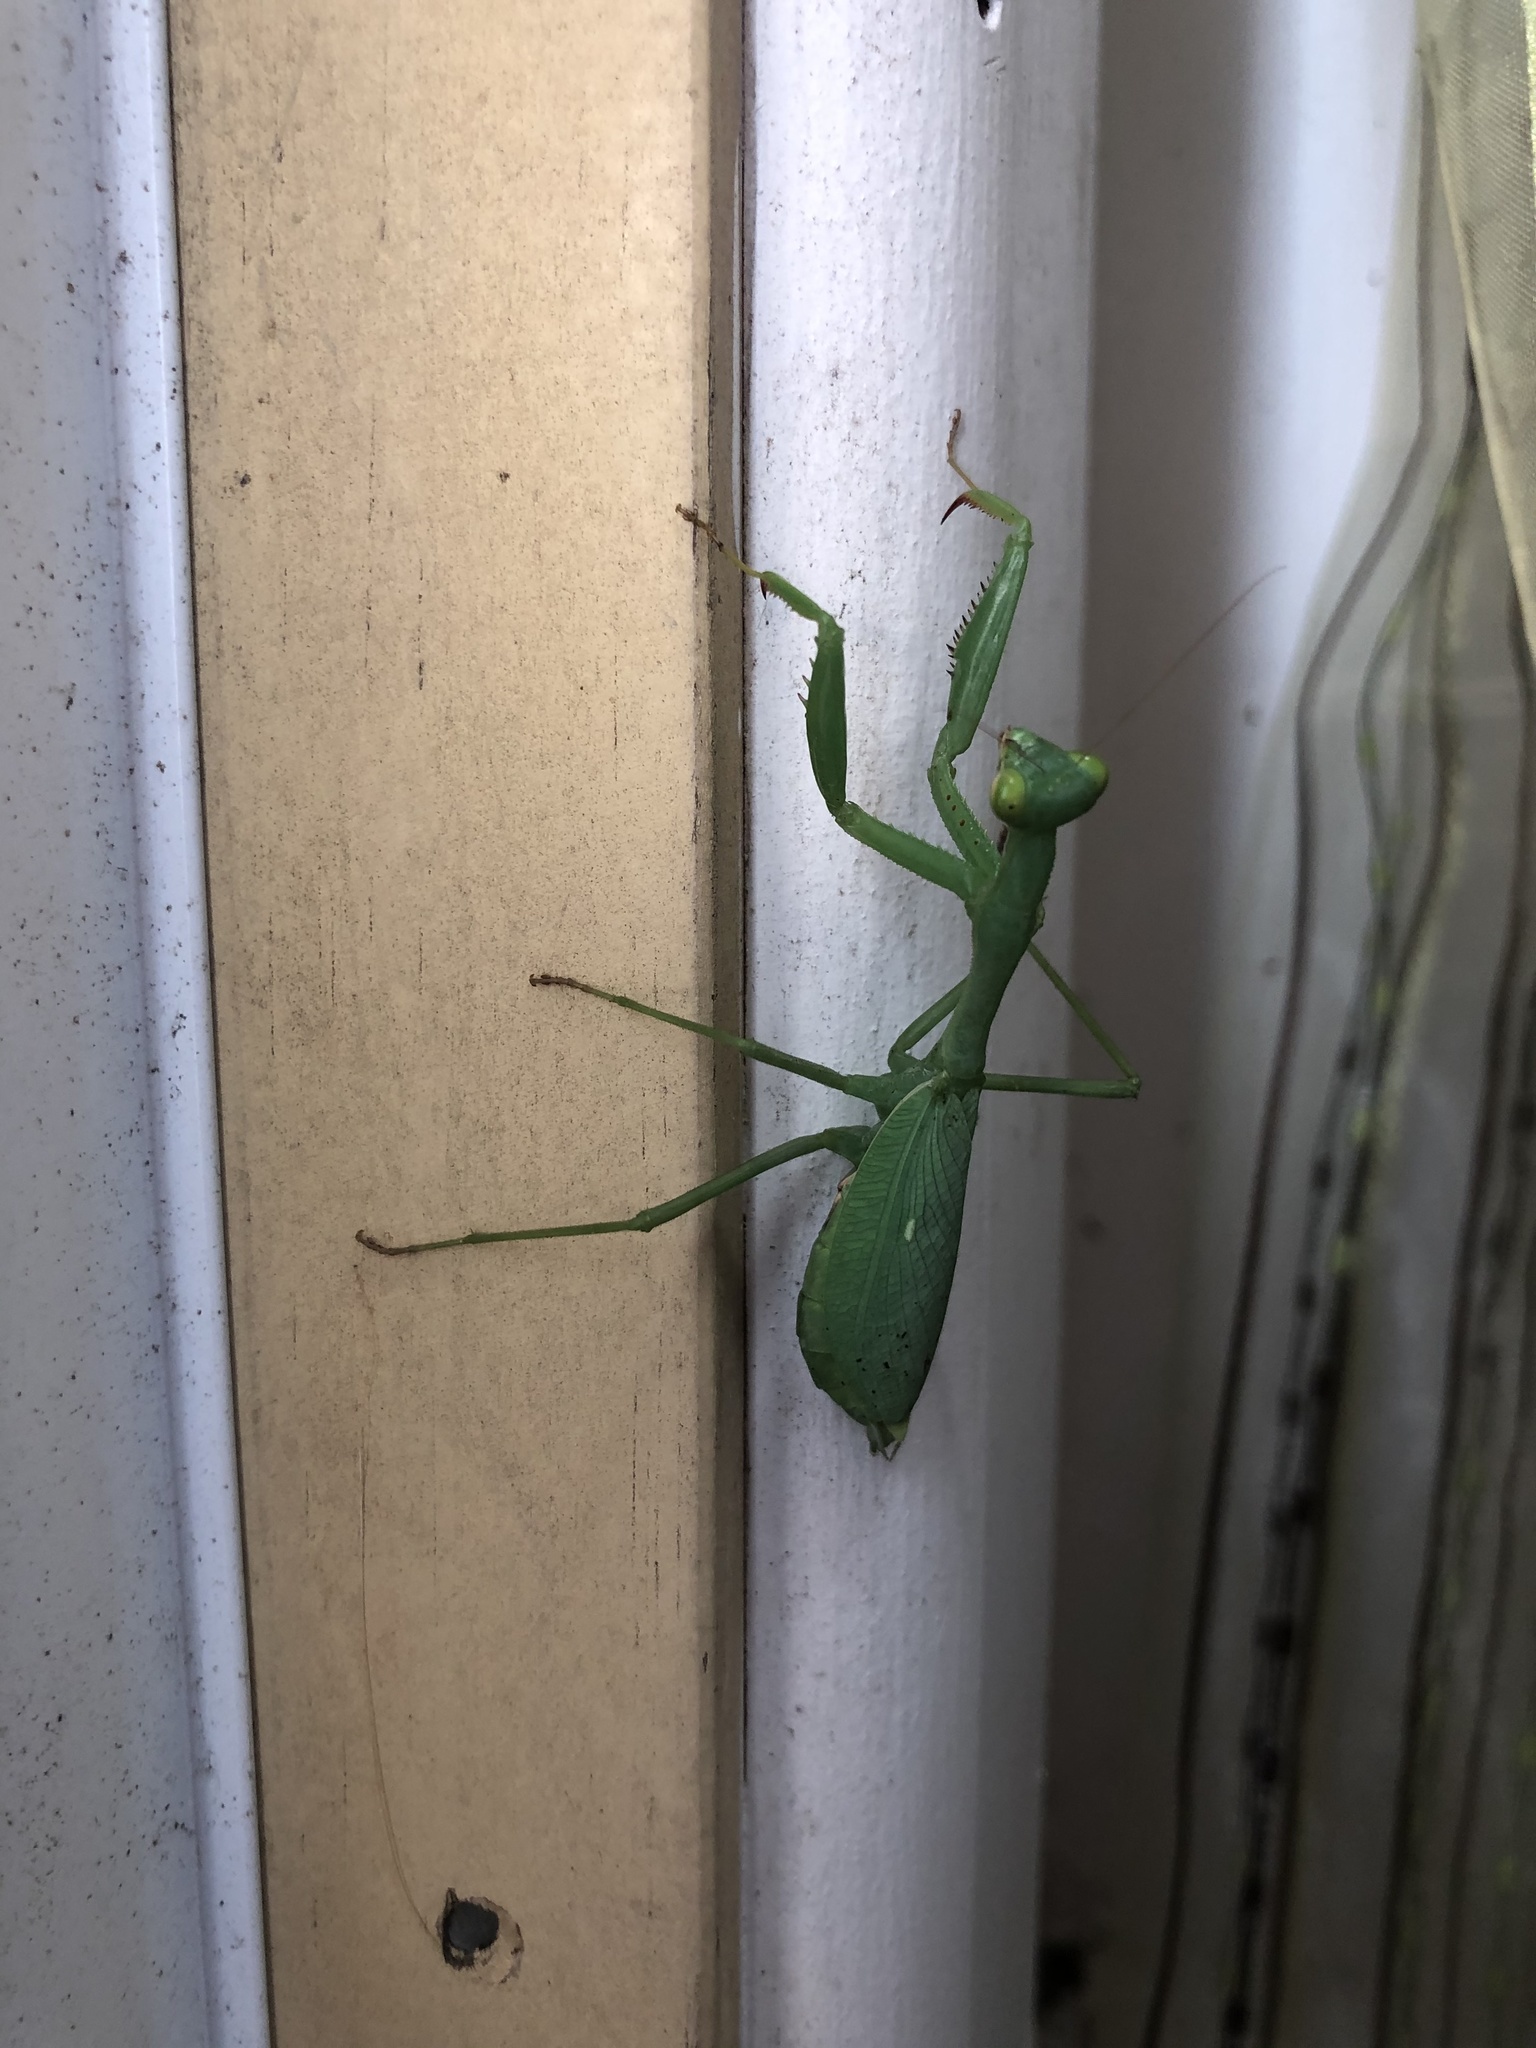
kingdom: Animalia
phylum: Arthropoda
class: Insecta
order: Mantodea
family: Miomantidae
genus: Miomantis
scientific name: Miomantis caffra
